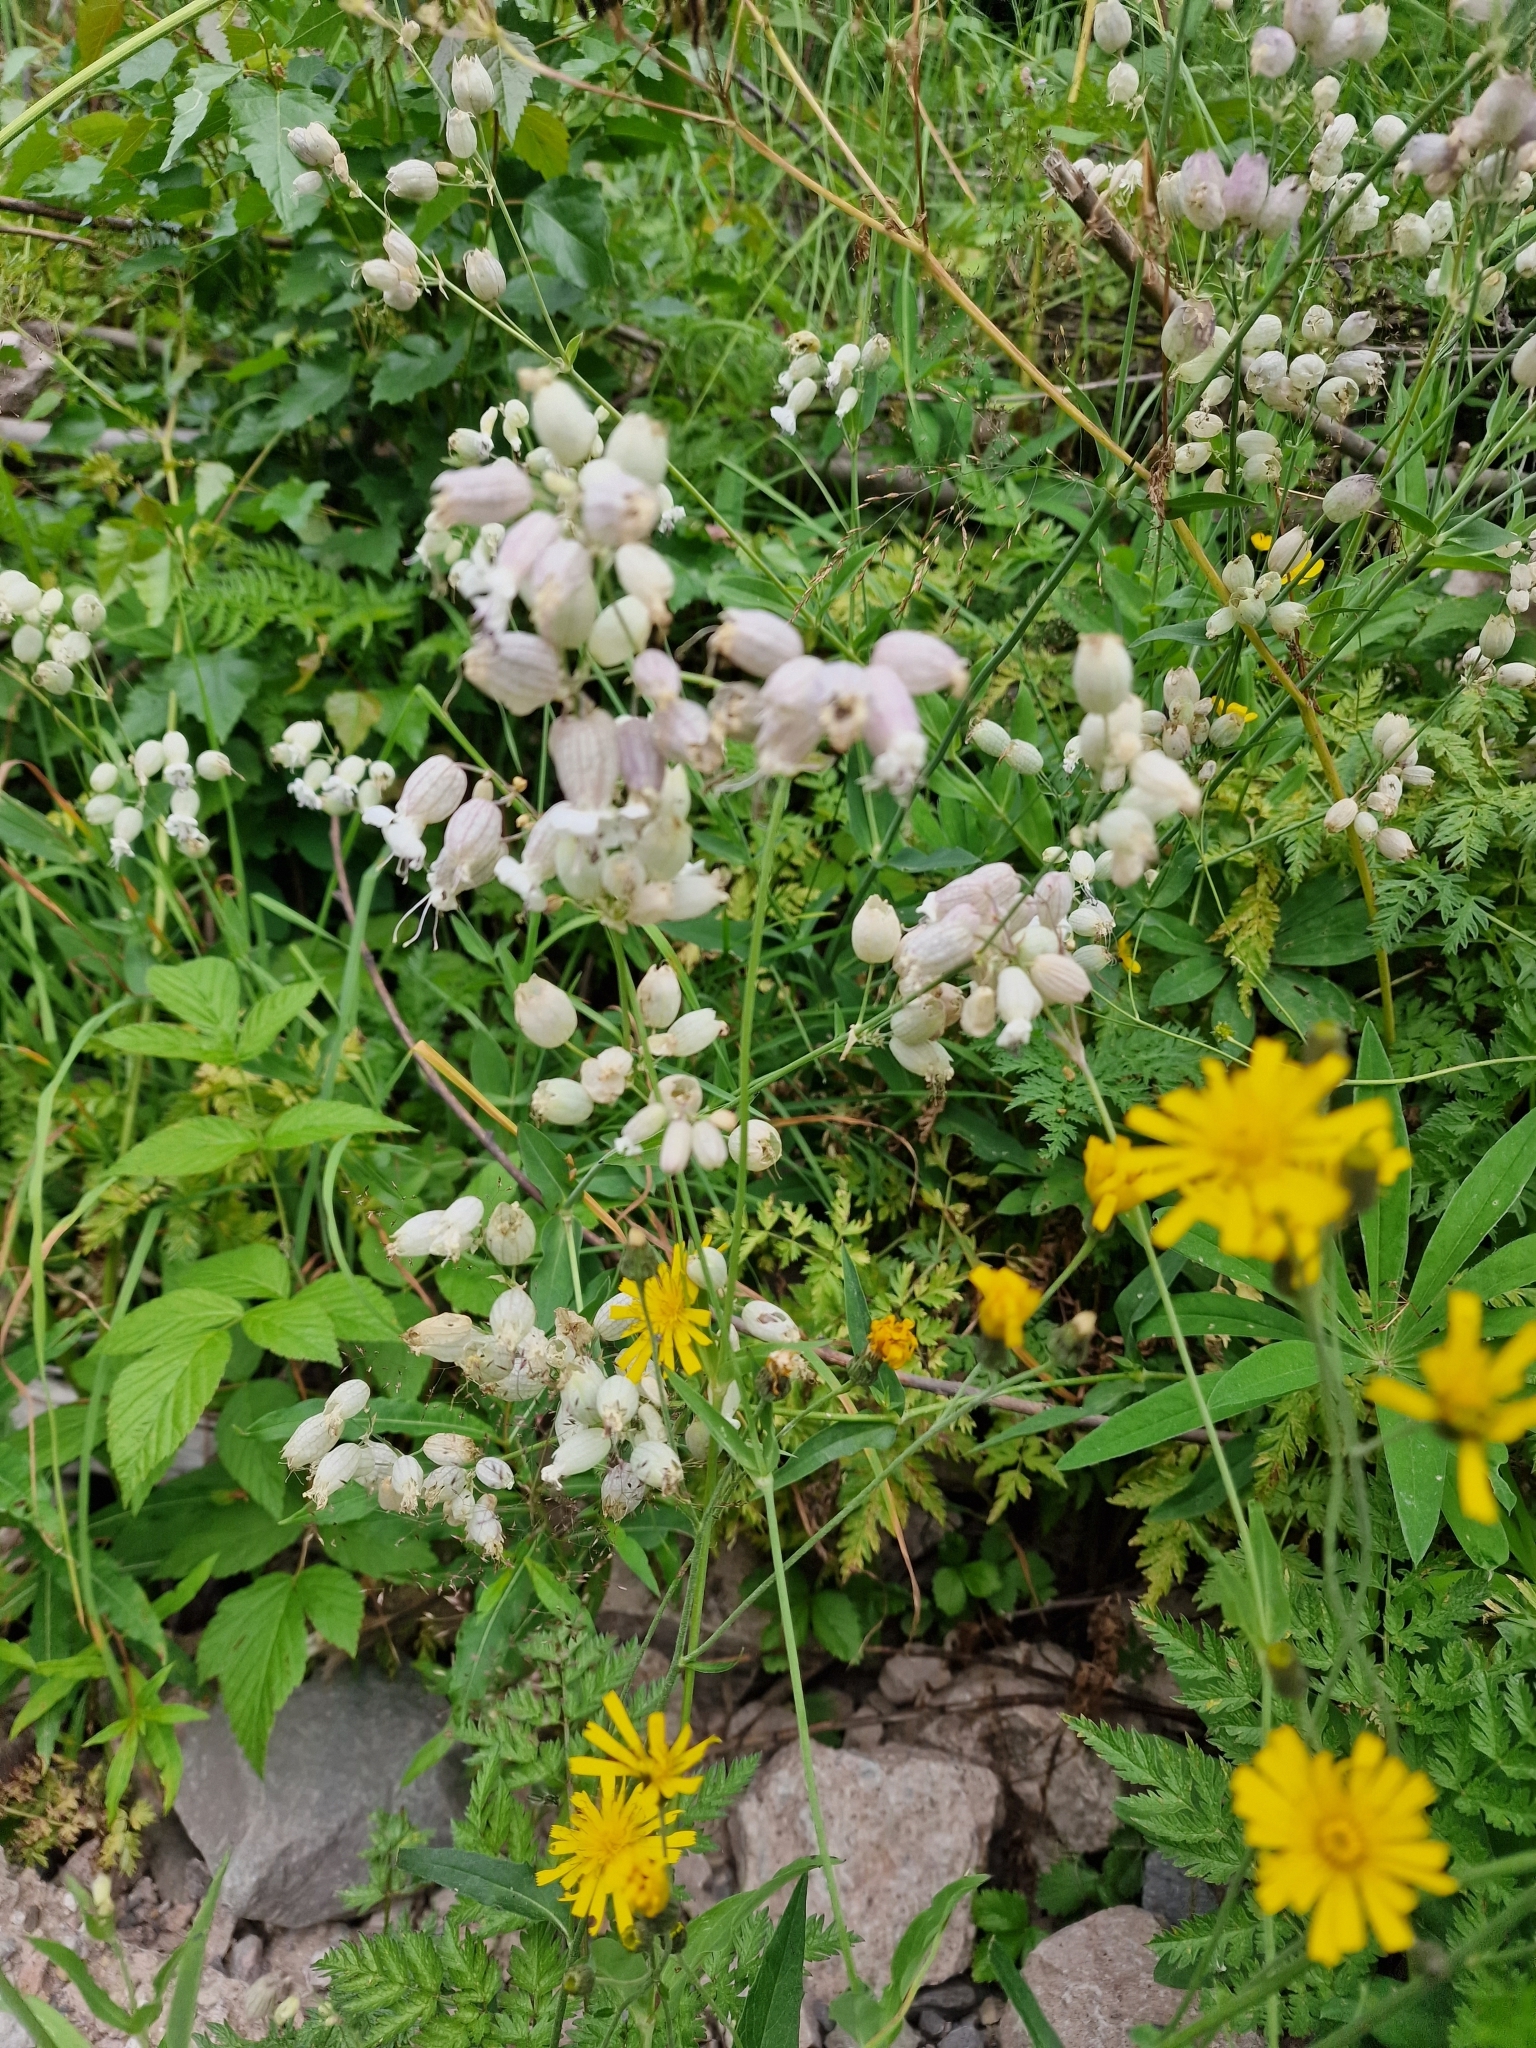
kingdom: Plantae
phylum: Tracheophyta
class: Magnoliopsida
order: Caryophyllales
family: Caryophyllaceae
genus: Silene
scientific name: Silene vulgaris
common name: Bladder campion
